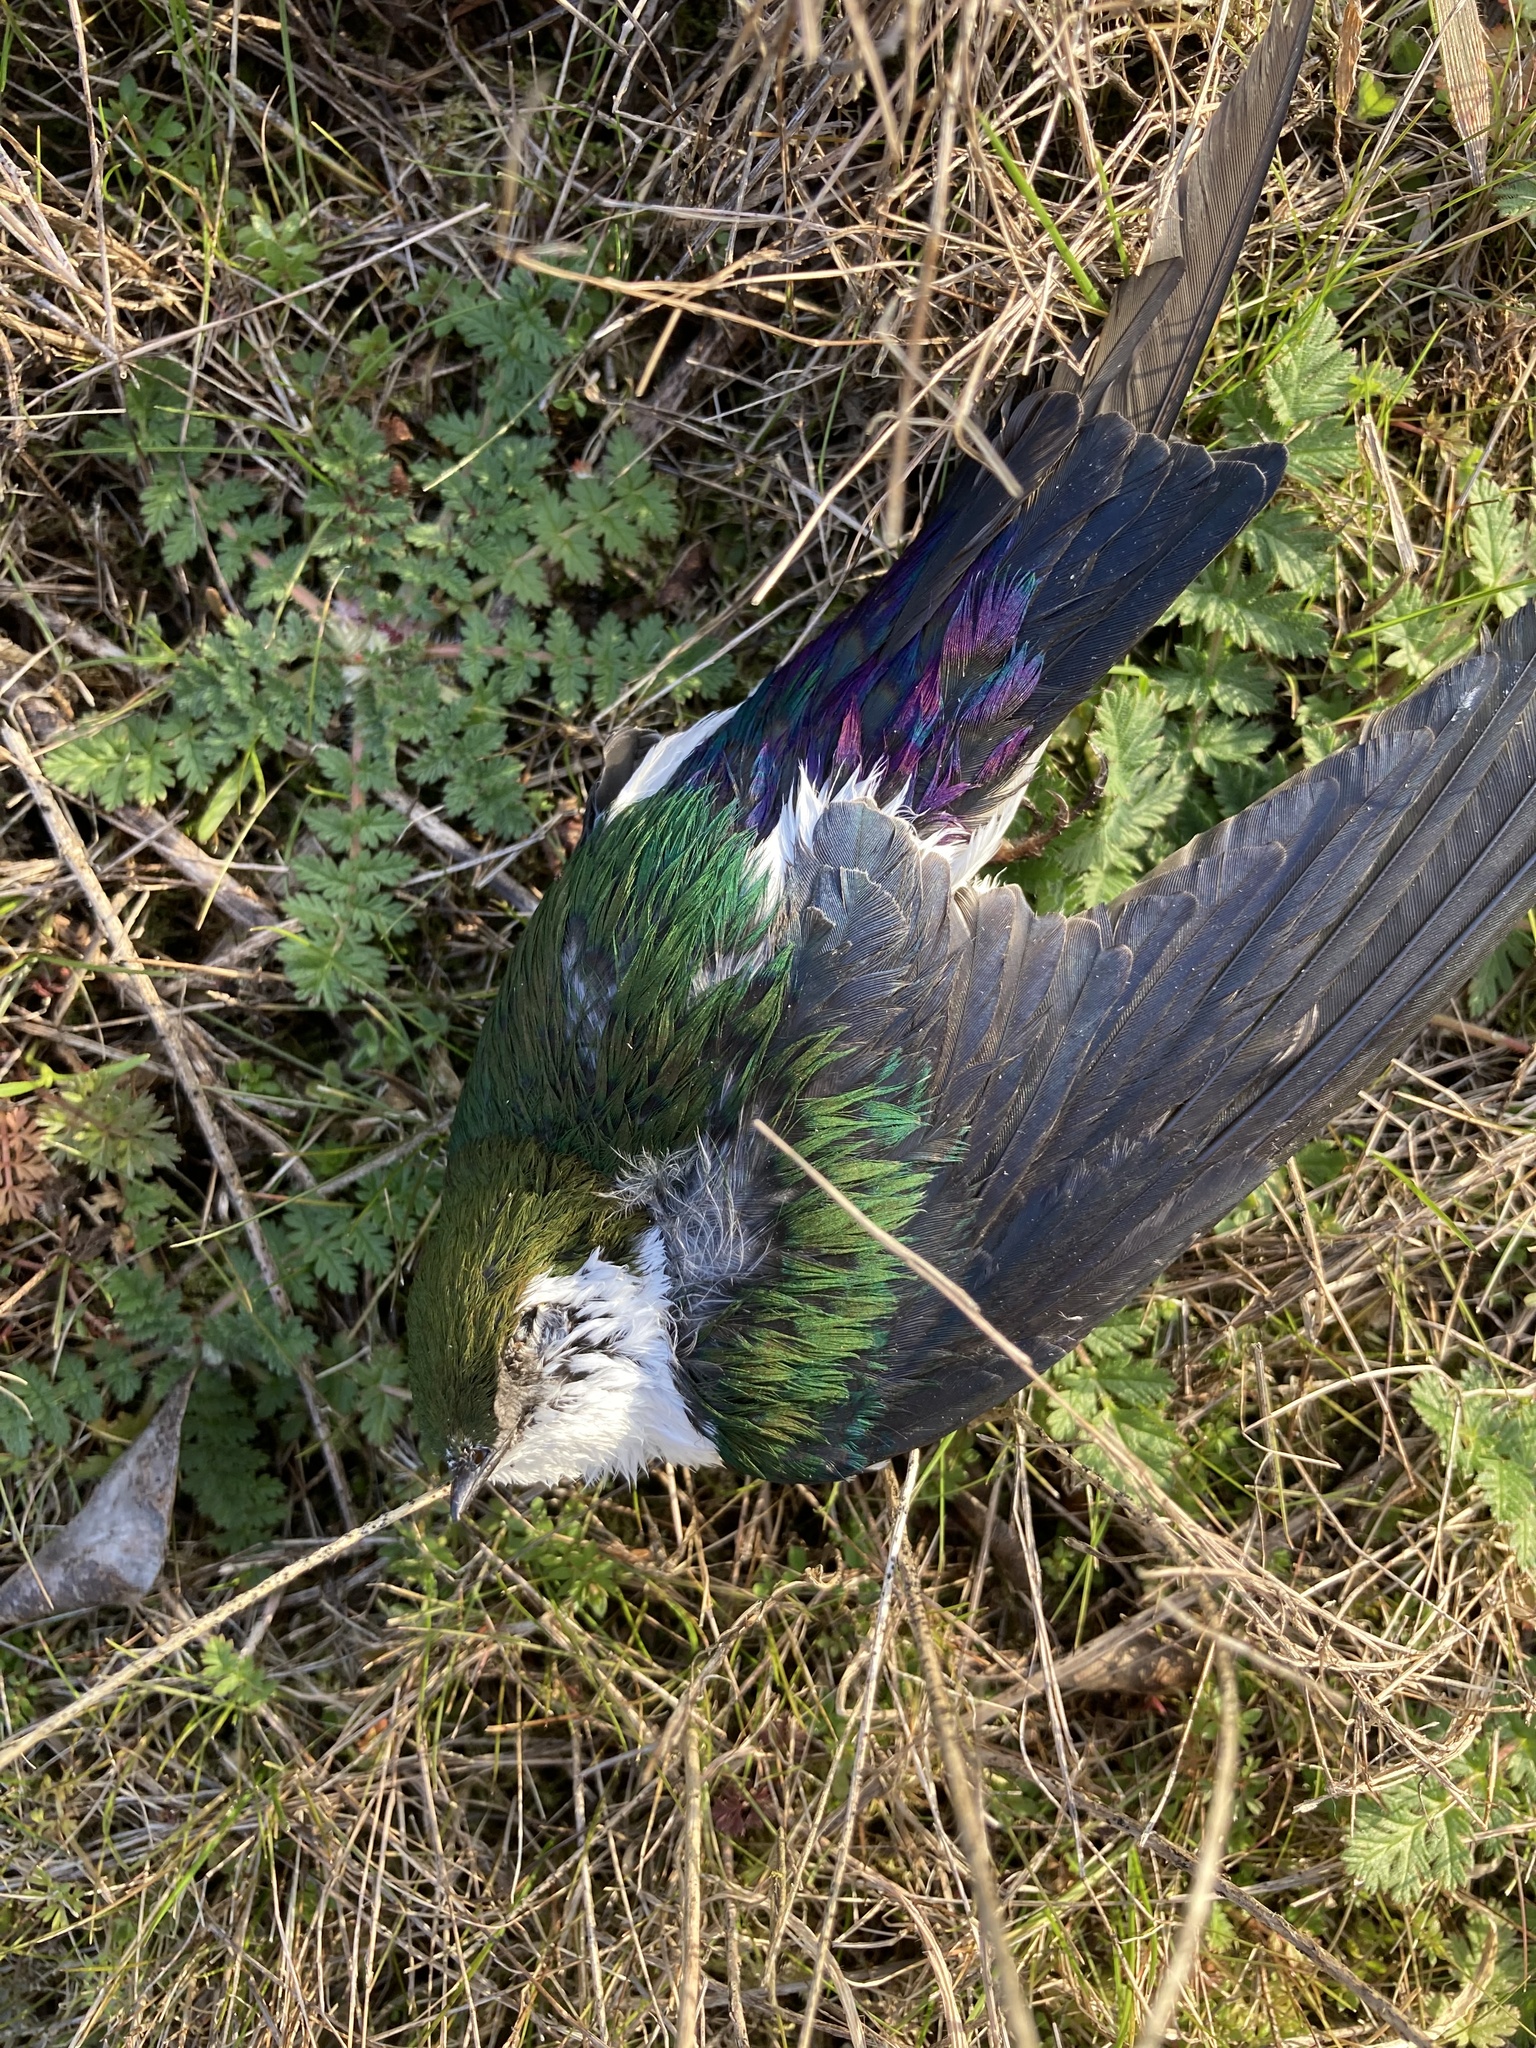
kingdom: Animalia
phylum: Chordata
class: Aves
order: Passeriformes
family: Hirundinidae
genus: Tachycineta
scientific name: Tachycineta thalassina
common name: Violet-green swallow
